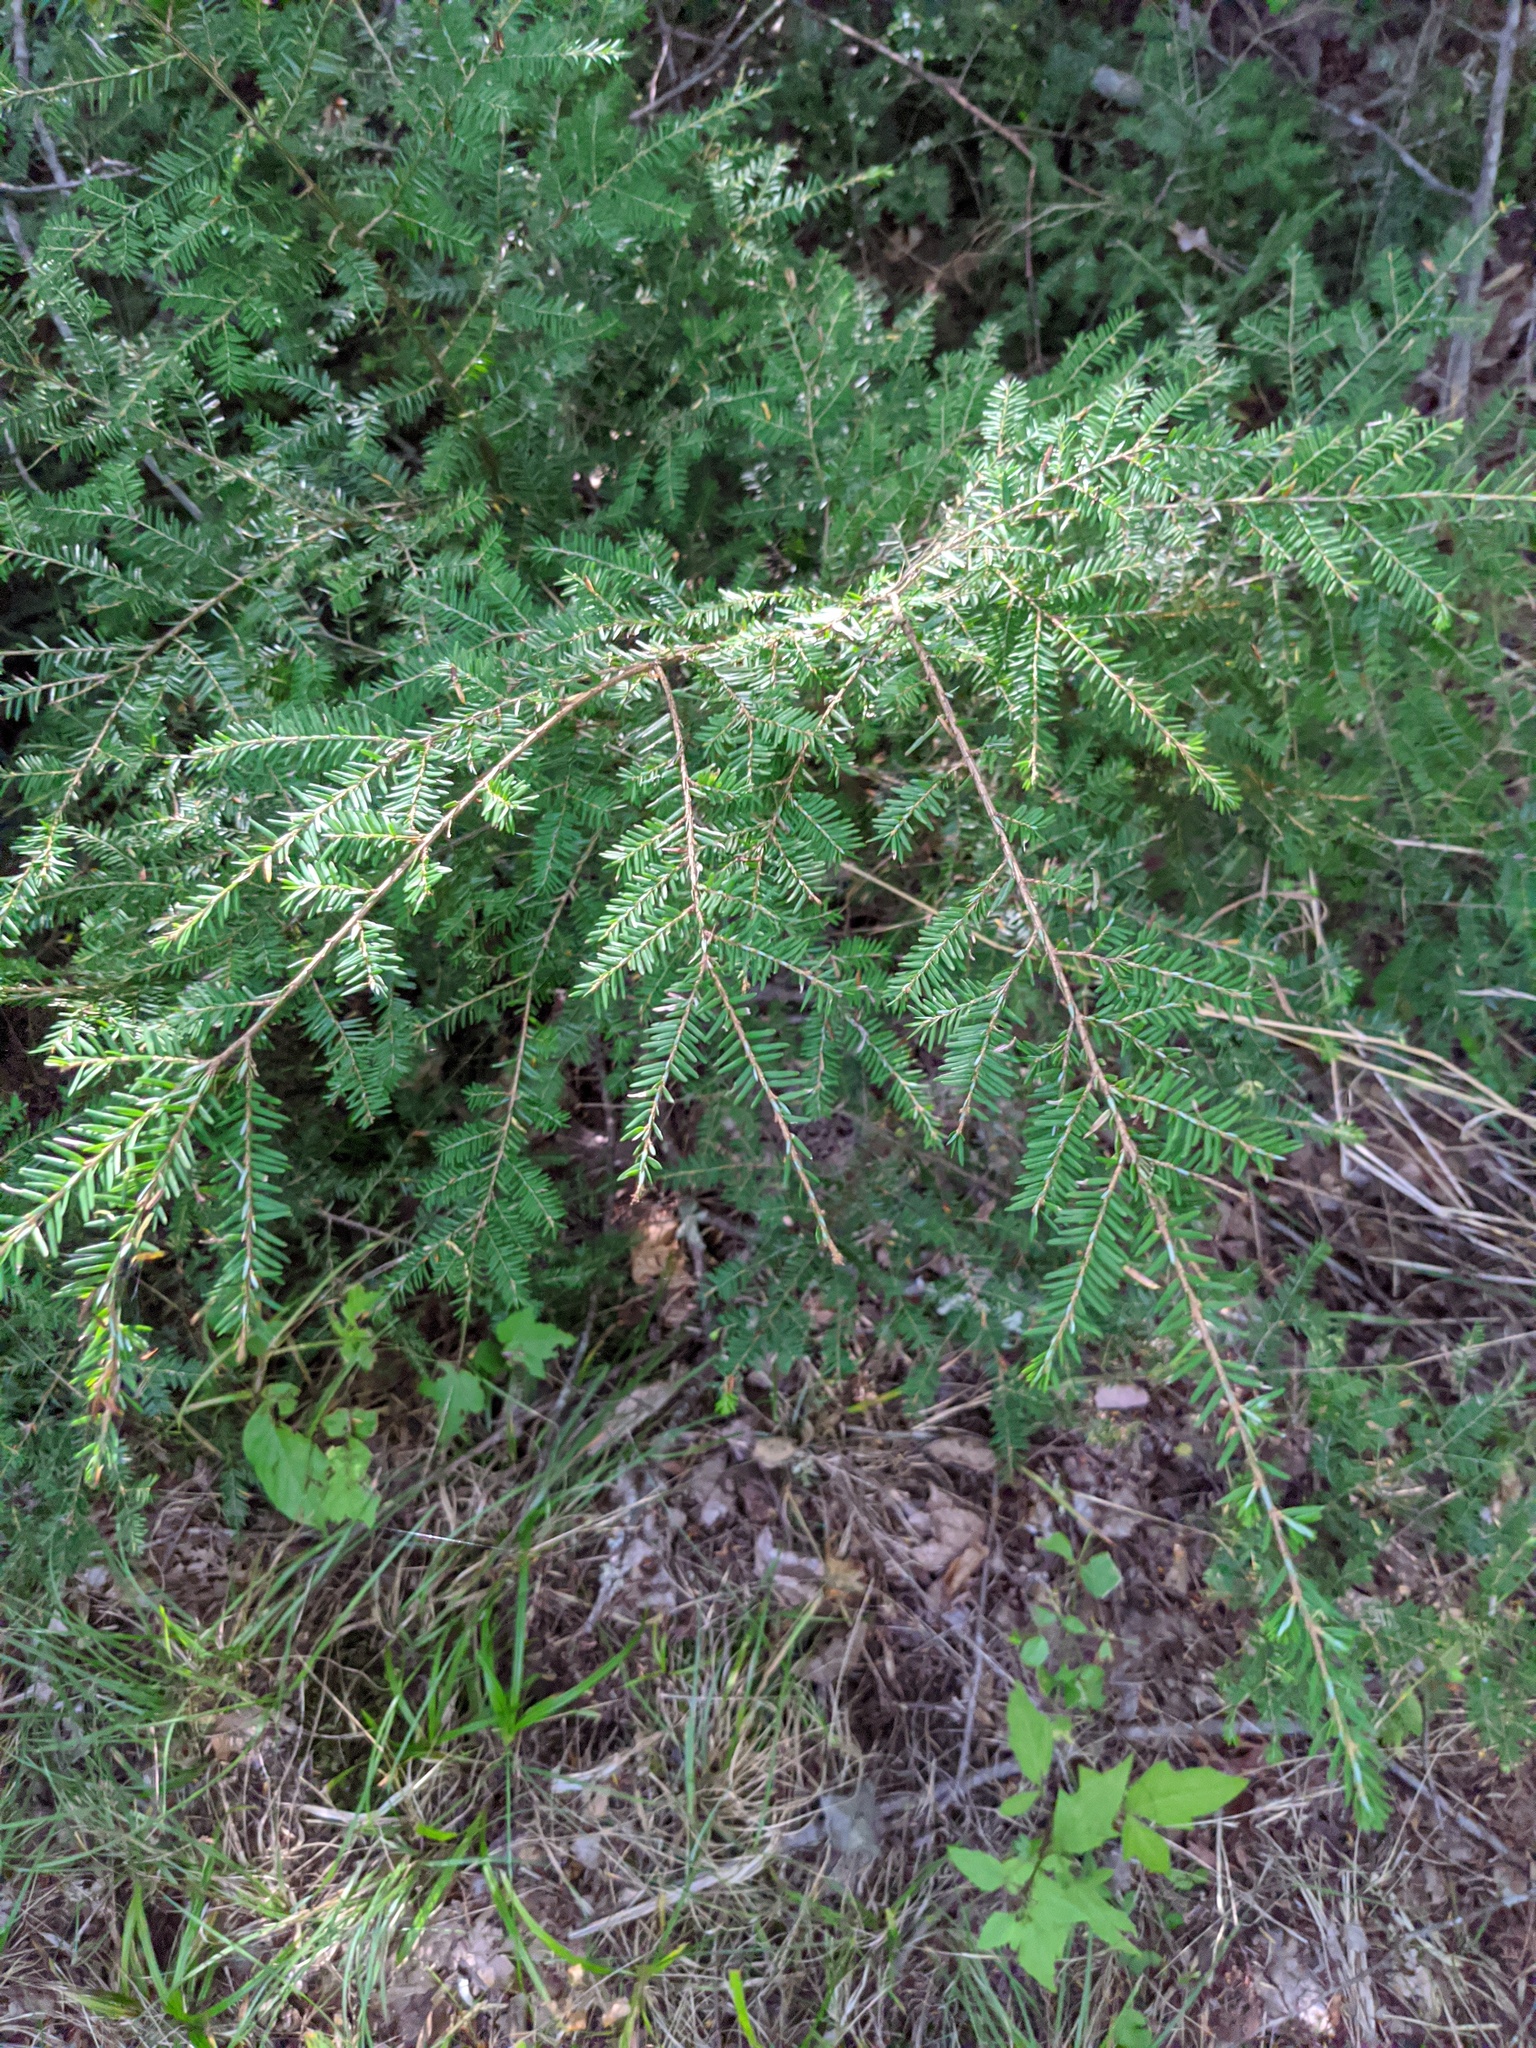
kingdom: Plantae
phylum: Tracheophyta
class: Pinopsida
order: Pinales
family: Pinaceae
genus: Tsuga
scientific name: Tsuga canadensis
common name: Eastern hemlock
